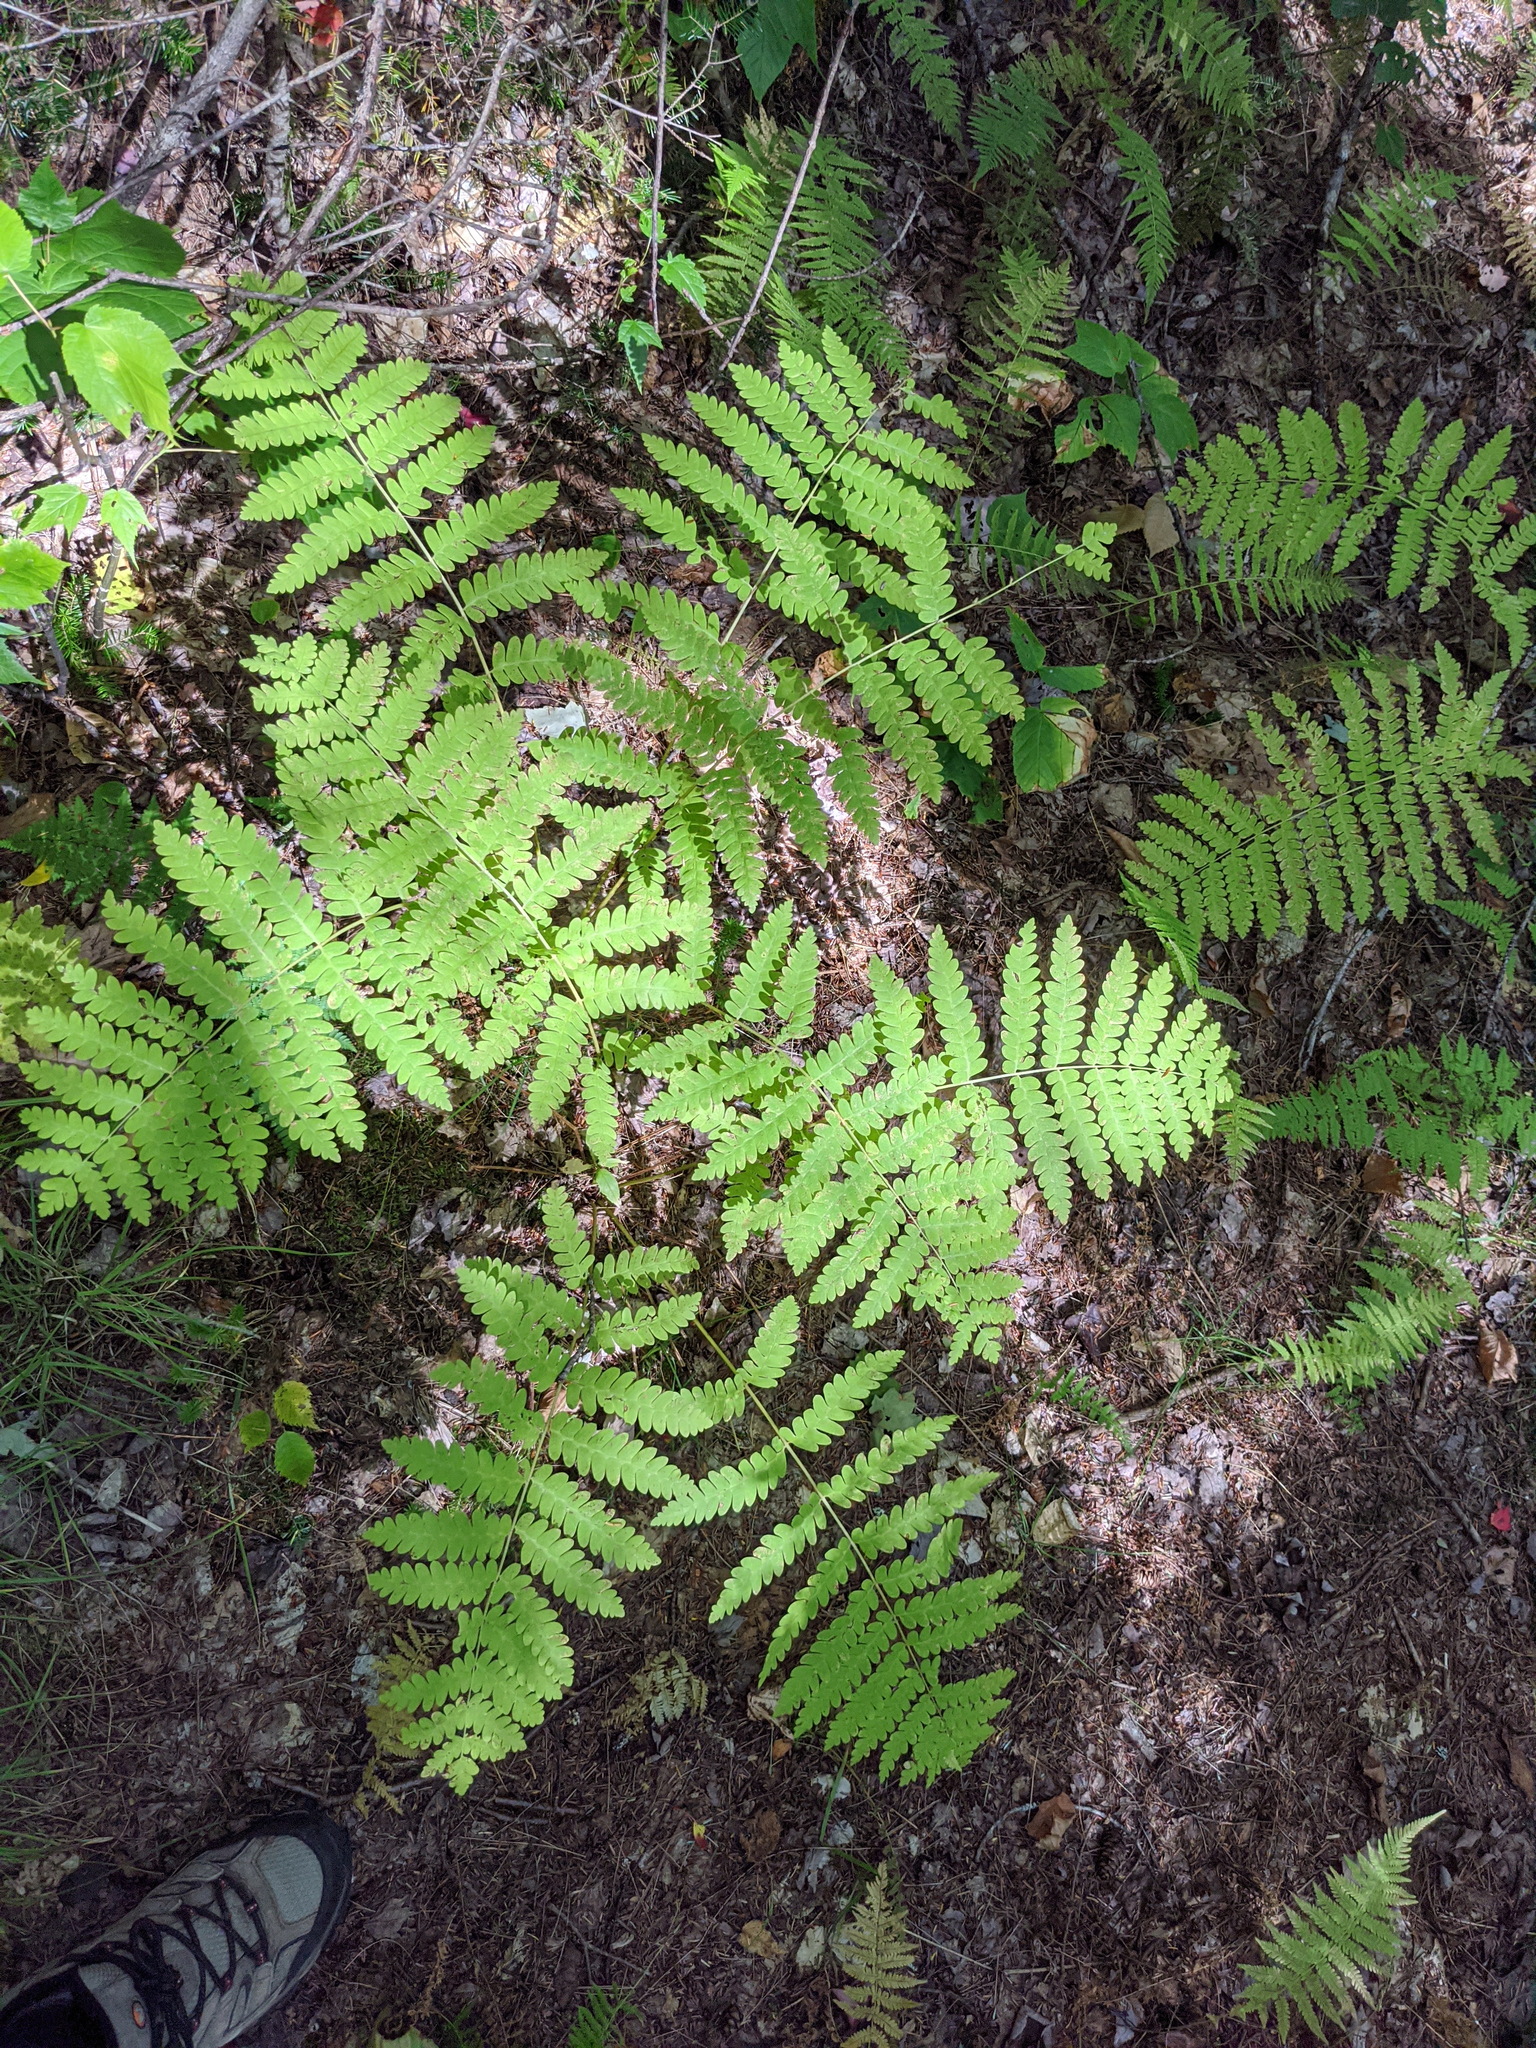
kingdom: Plantae
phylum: Tracheophyta
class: Polypodiopsida
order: Osmundales
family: Osmundaceae
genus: Claytosmunda
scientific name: Claytosmunda claytoniana
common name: Clayton's fern
